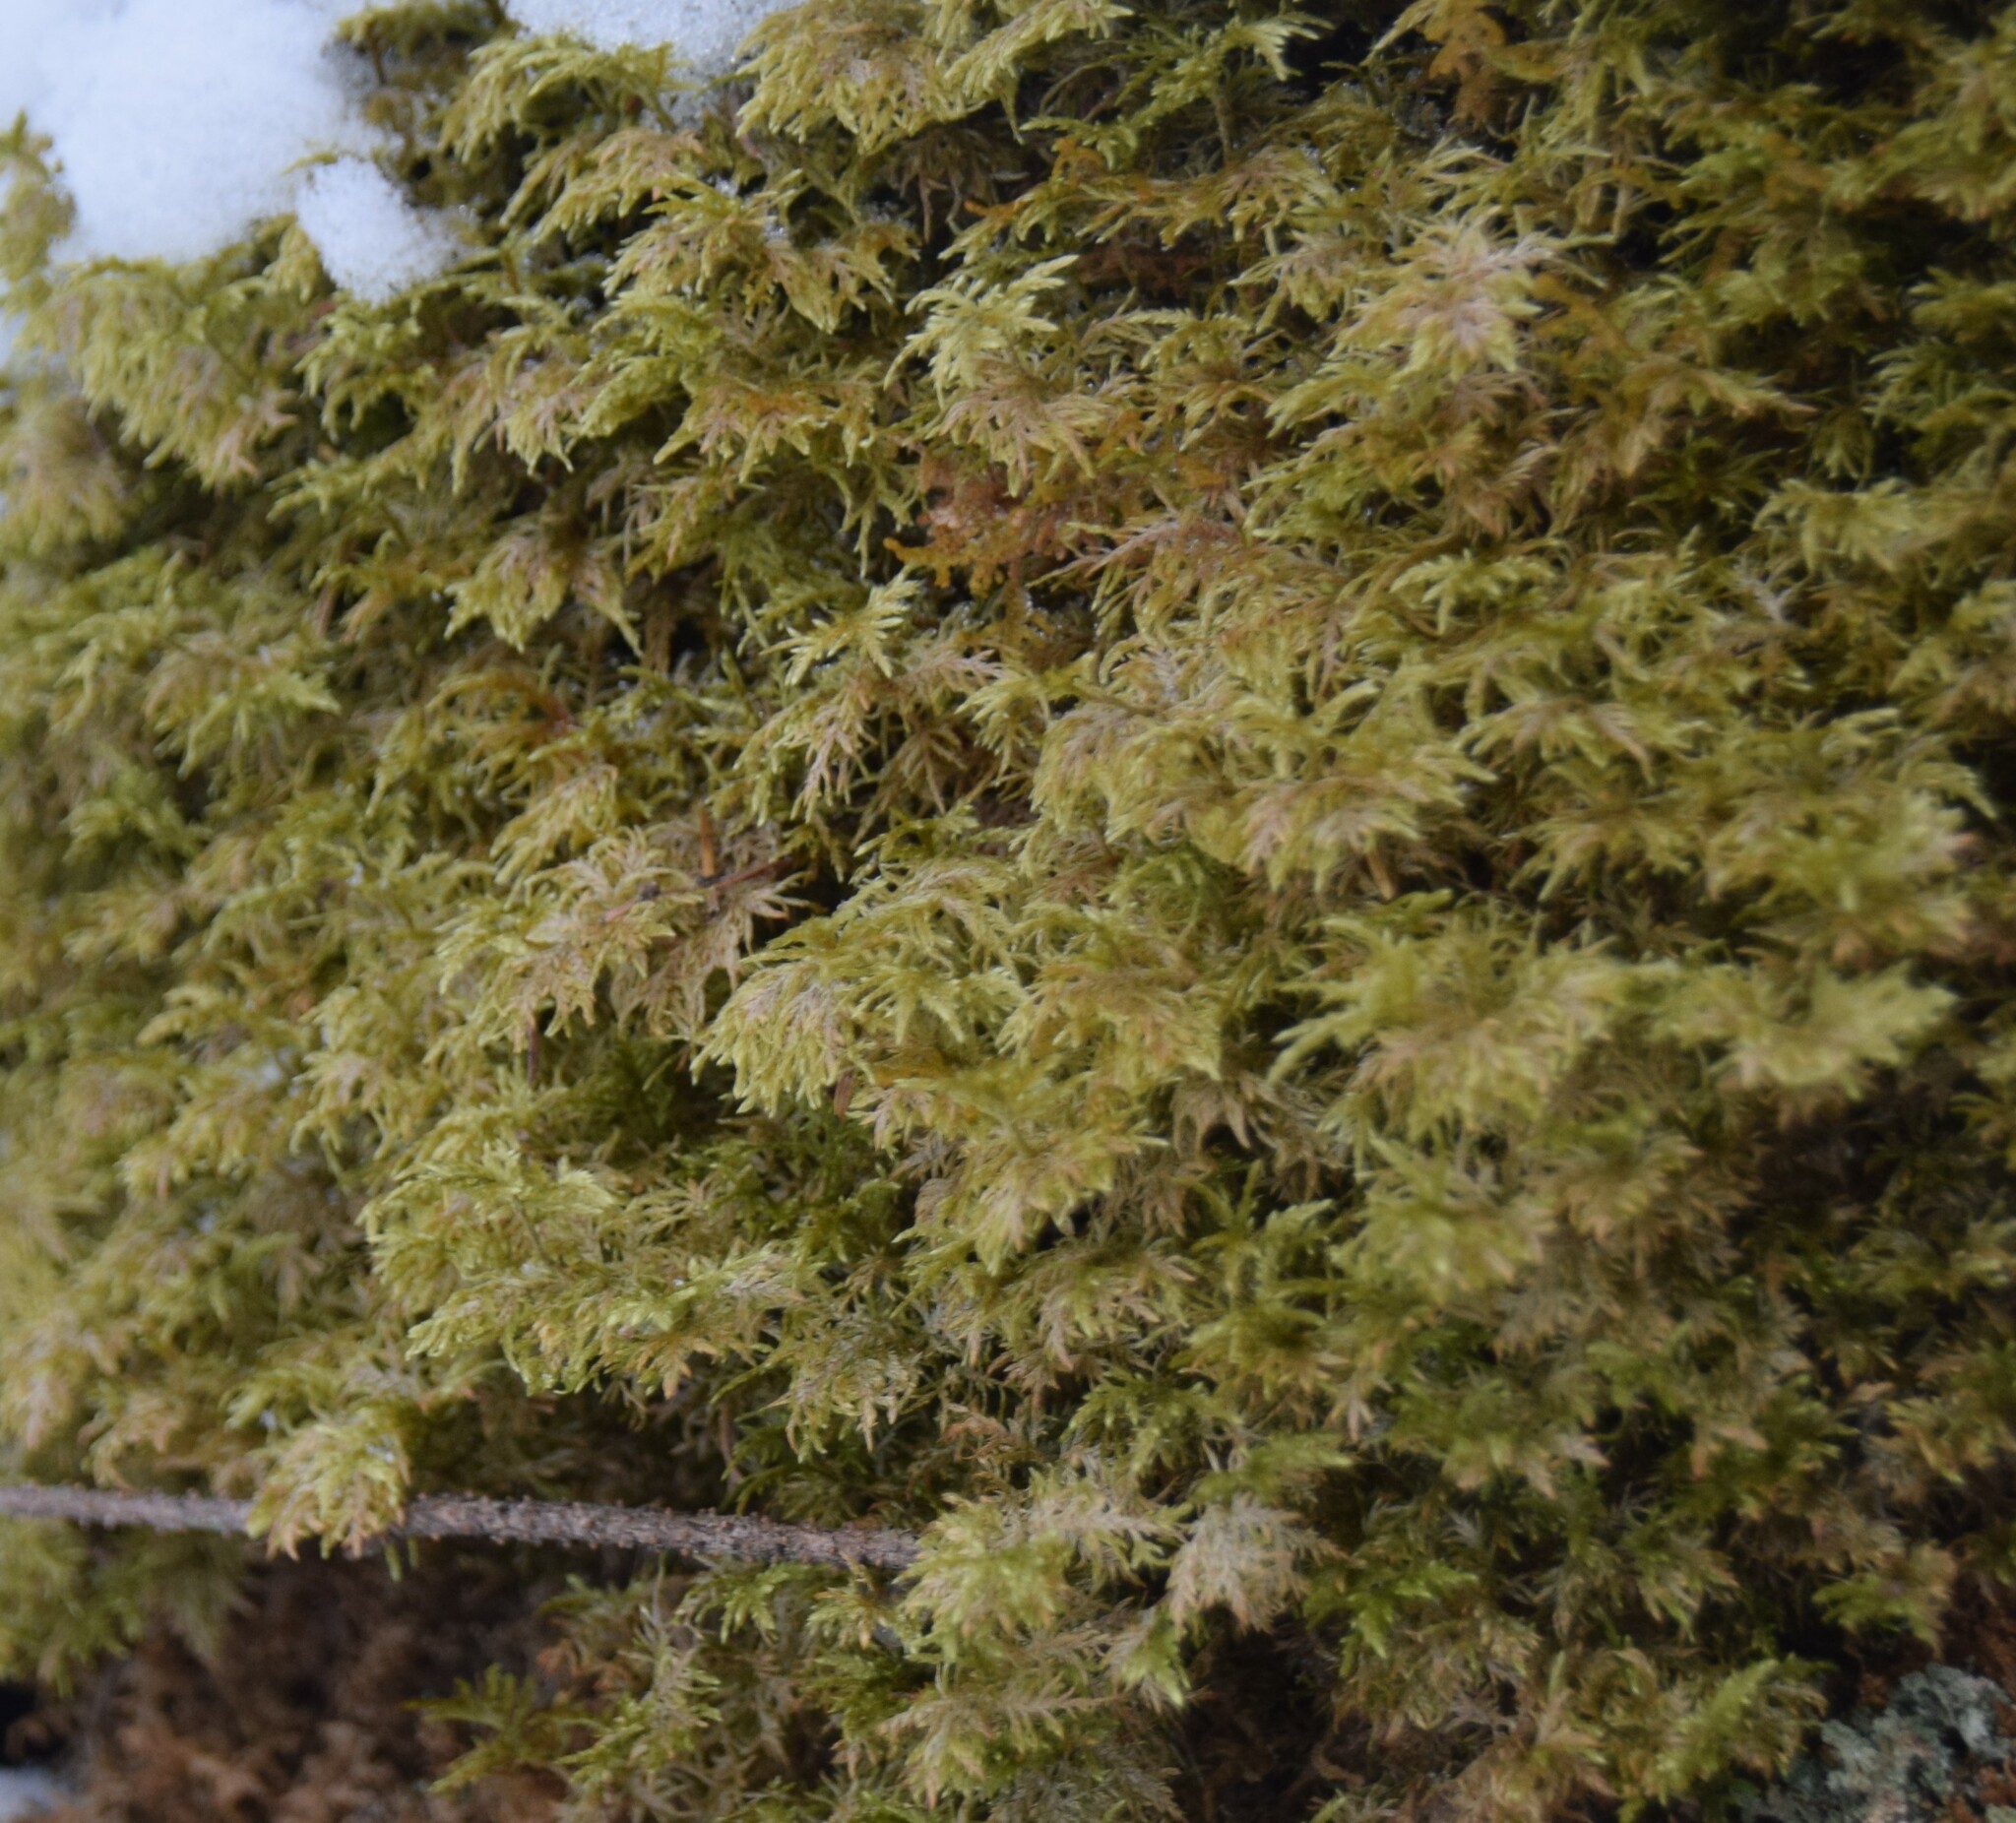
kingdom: Plantae
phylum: Bryophyta
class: Bryopsida
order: Hypnales
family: Hylocomiaceae
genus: Hylocomium
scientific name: Hylocomium splendens
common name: Stairstep moss
